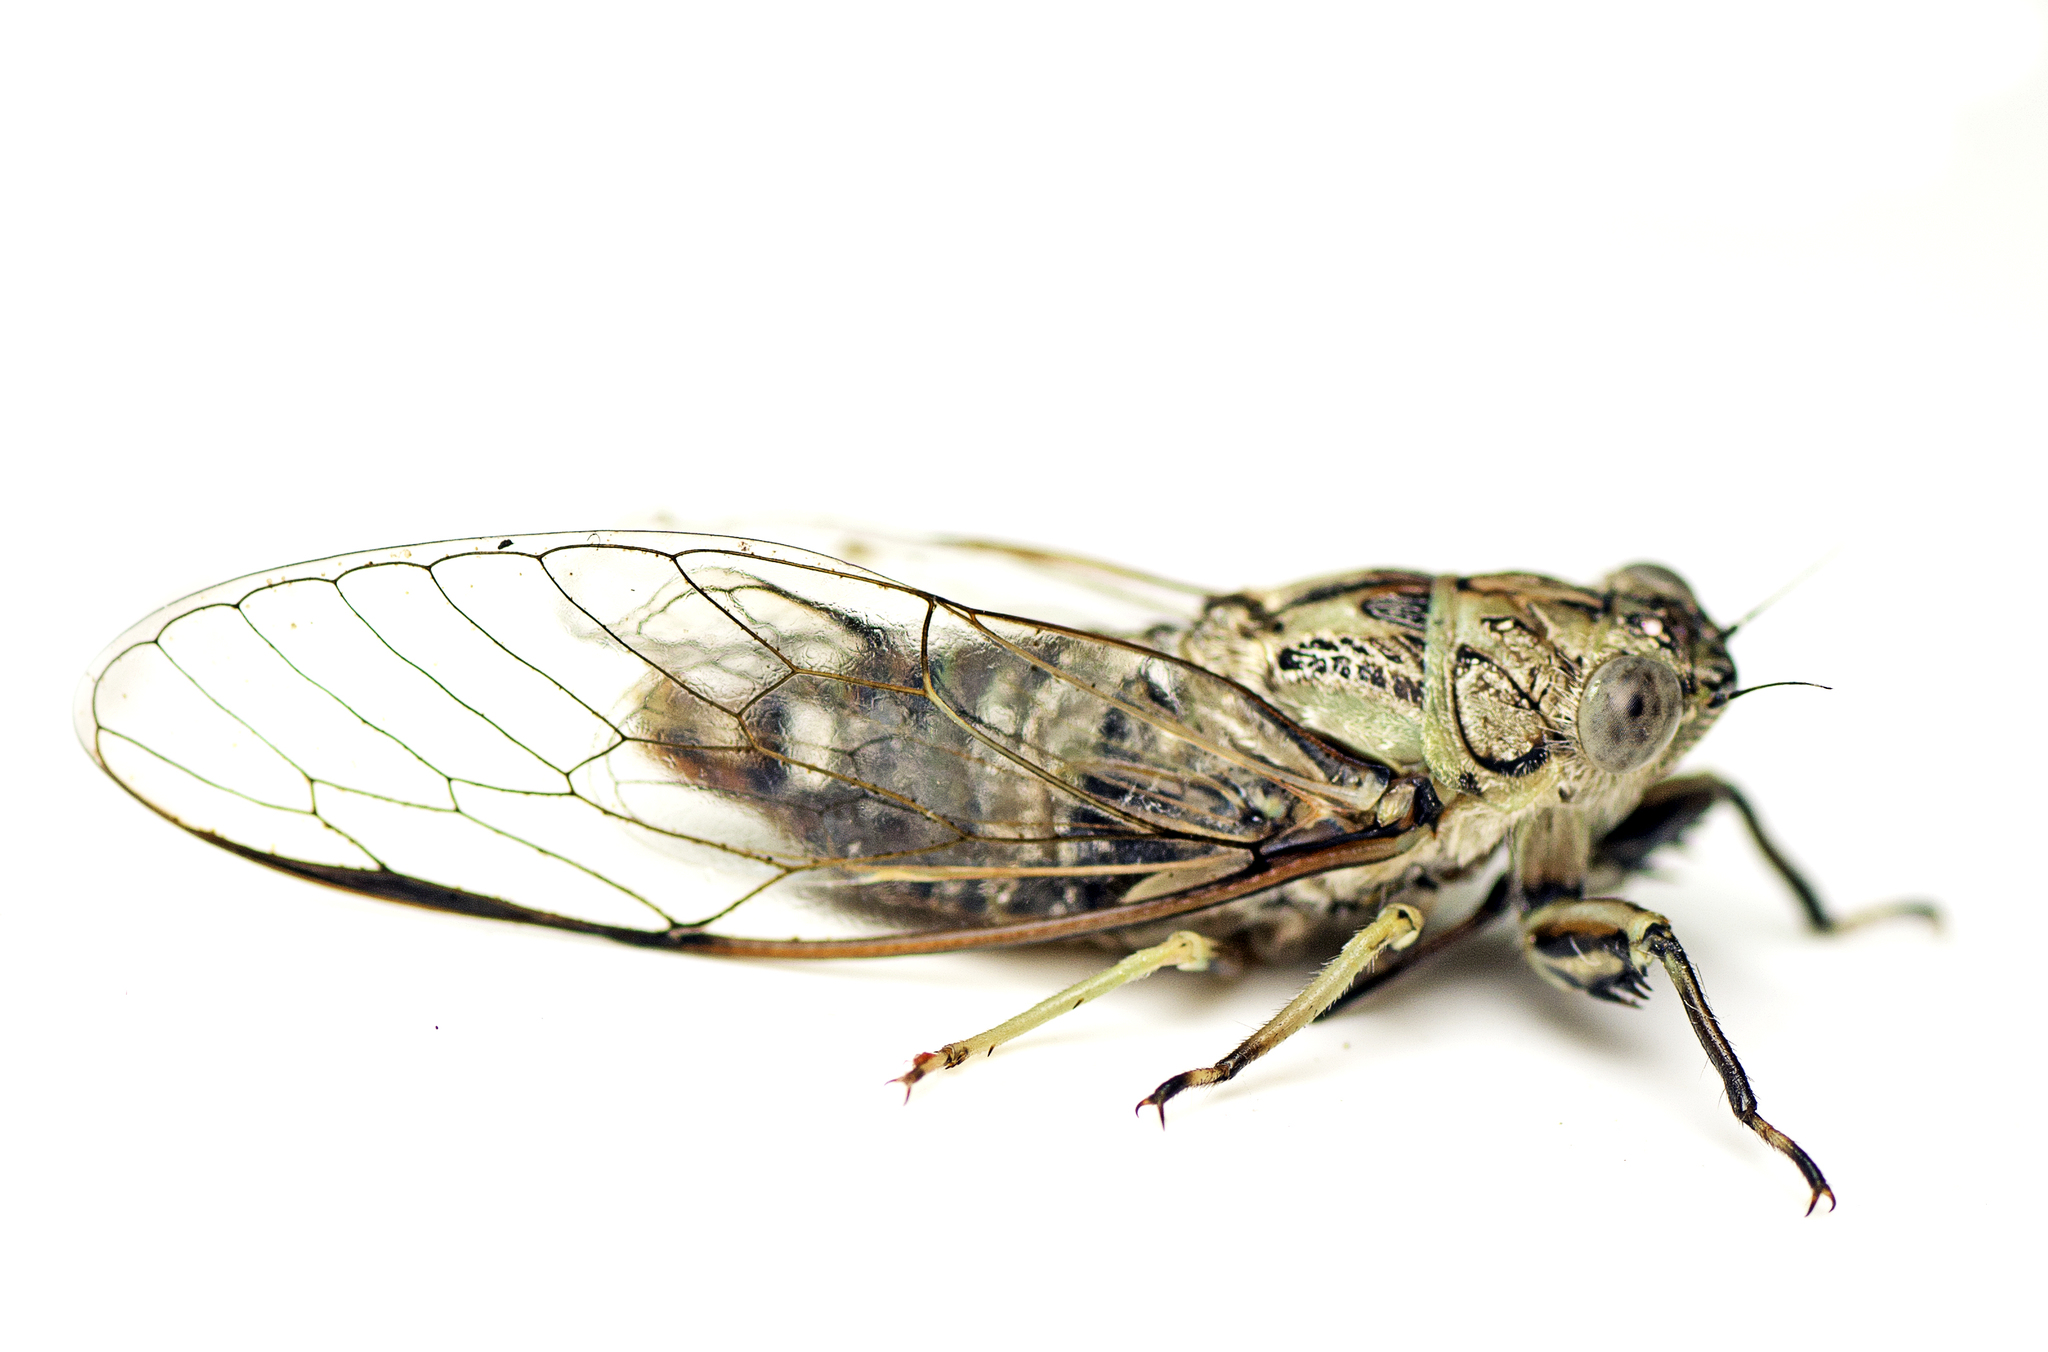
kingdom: Animalia
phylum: Arthropoda
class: Insecta
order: Hemiptera
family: Cicadidae
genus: Telmapsalta
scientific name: Telmapsalta hackeri
